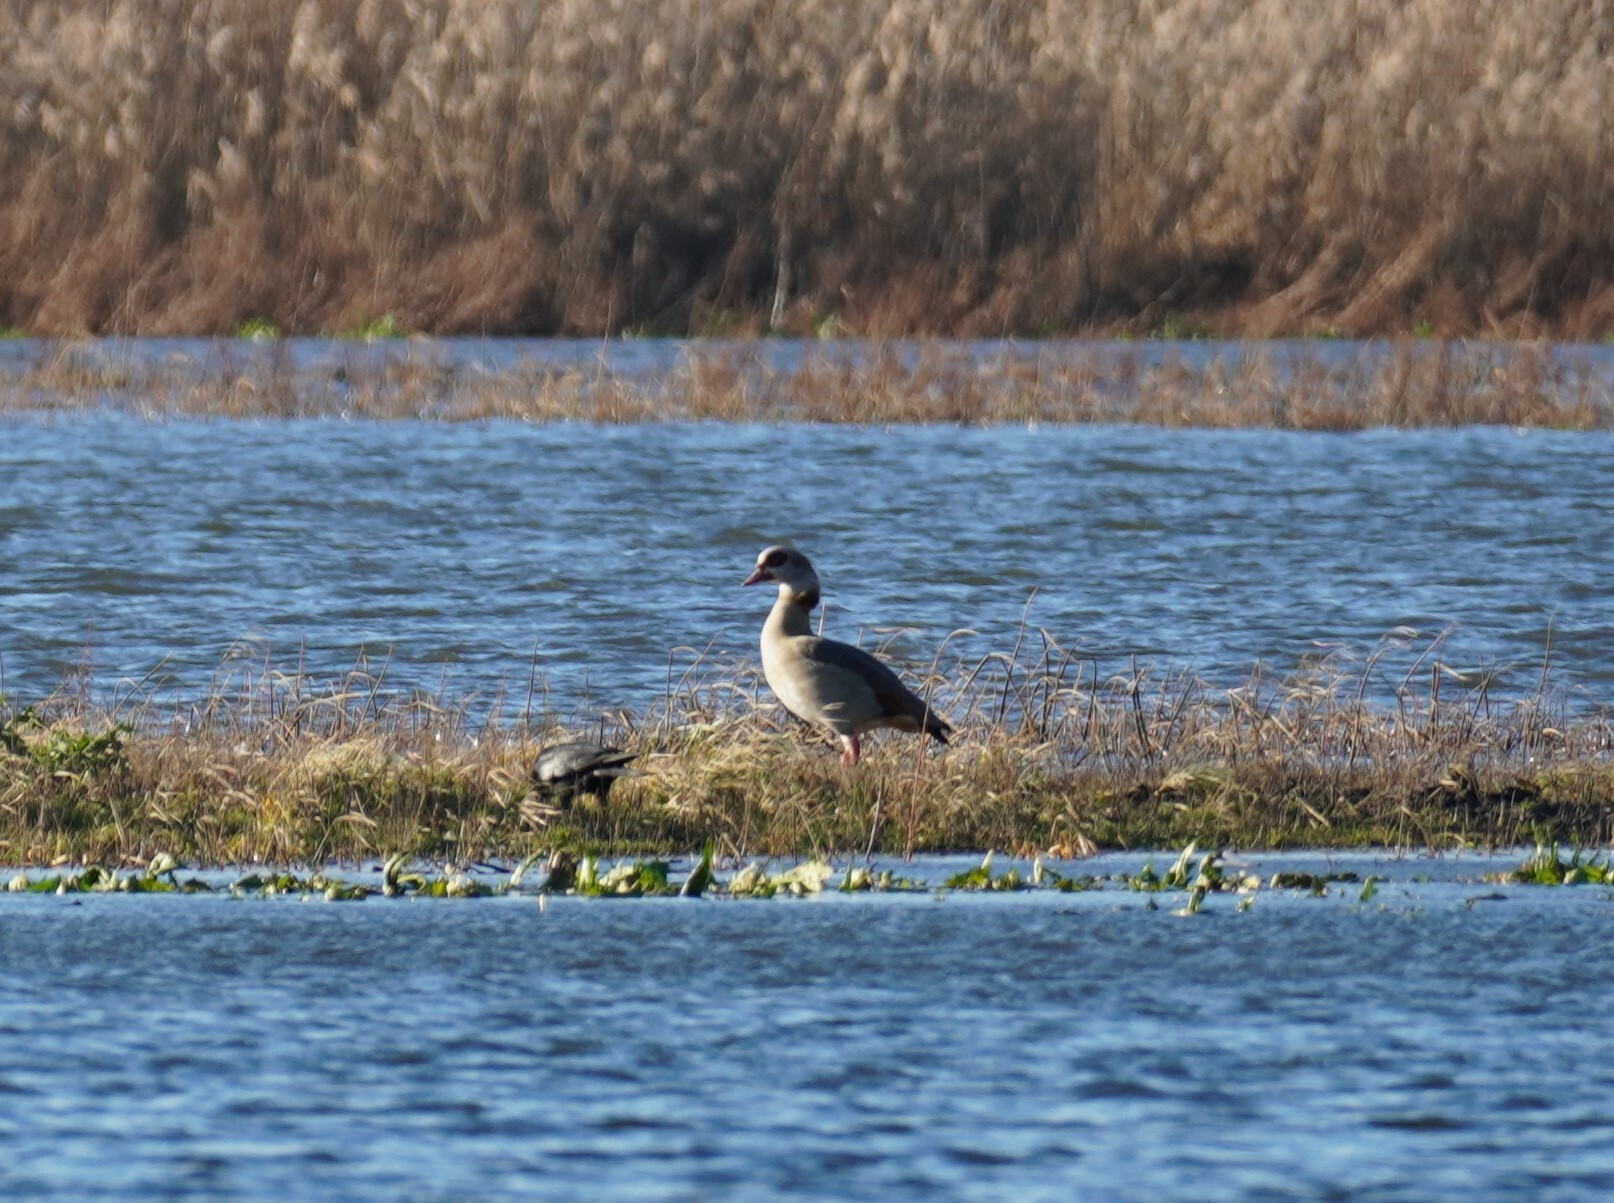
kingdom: Animalia
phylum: Chordata
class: Aves
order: Anseriformes
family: Anatidae
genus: Alopochen
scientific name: Alopochen aegyptiaca
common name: Egyptian goose
